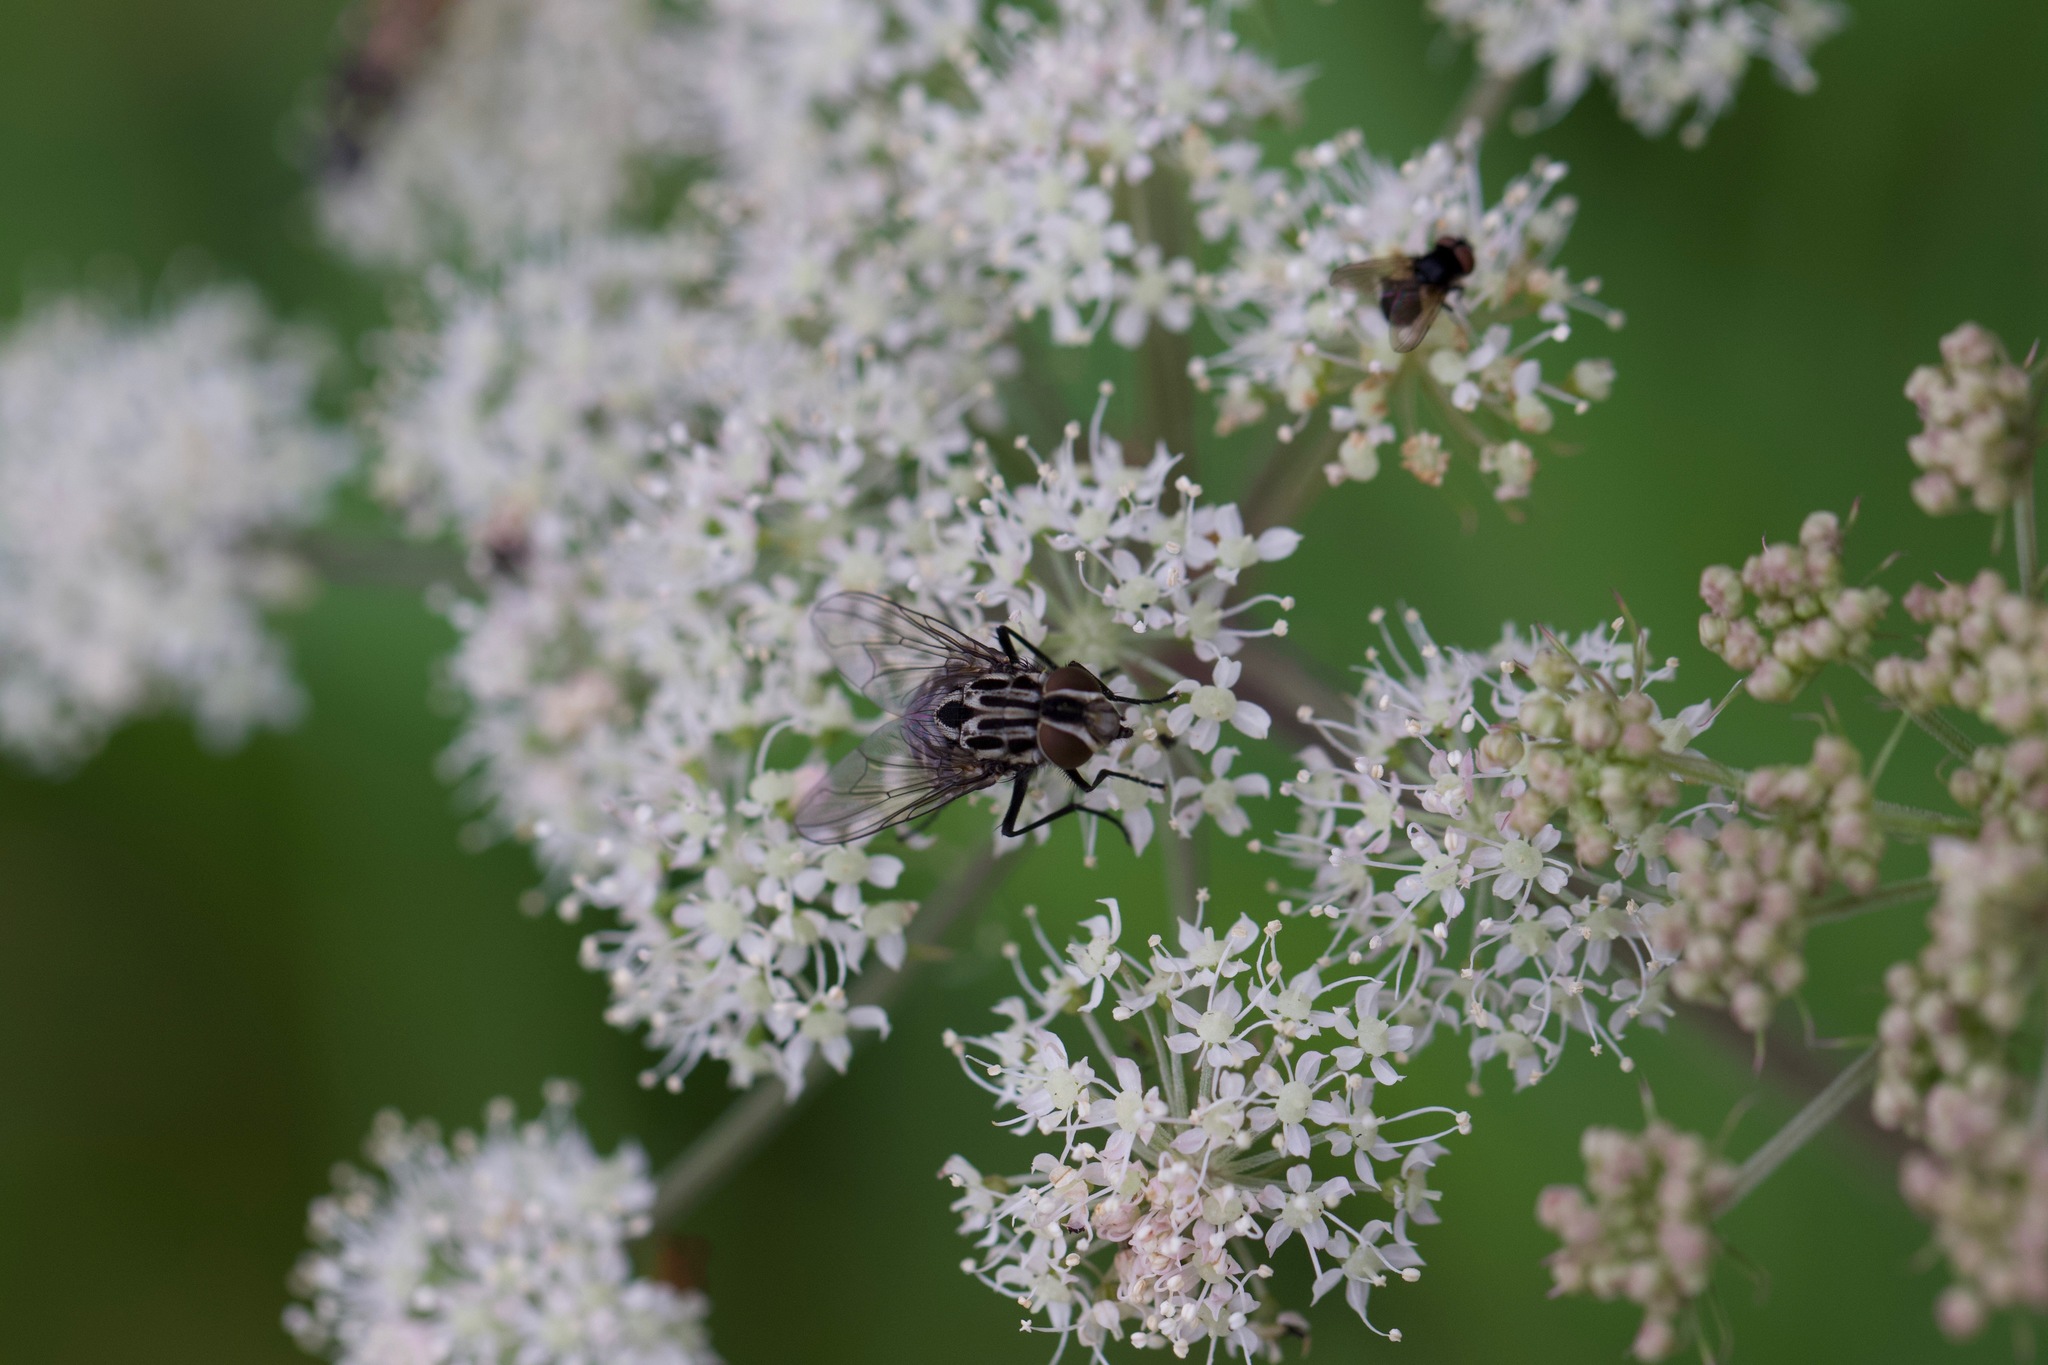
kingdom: Animalia
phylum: Arthropoda
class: Insecta
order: Diptera
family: Muscidae
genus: Graphomya
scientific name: Graphomya maculata
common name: Muscid fly
